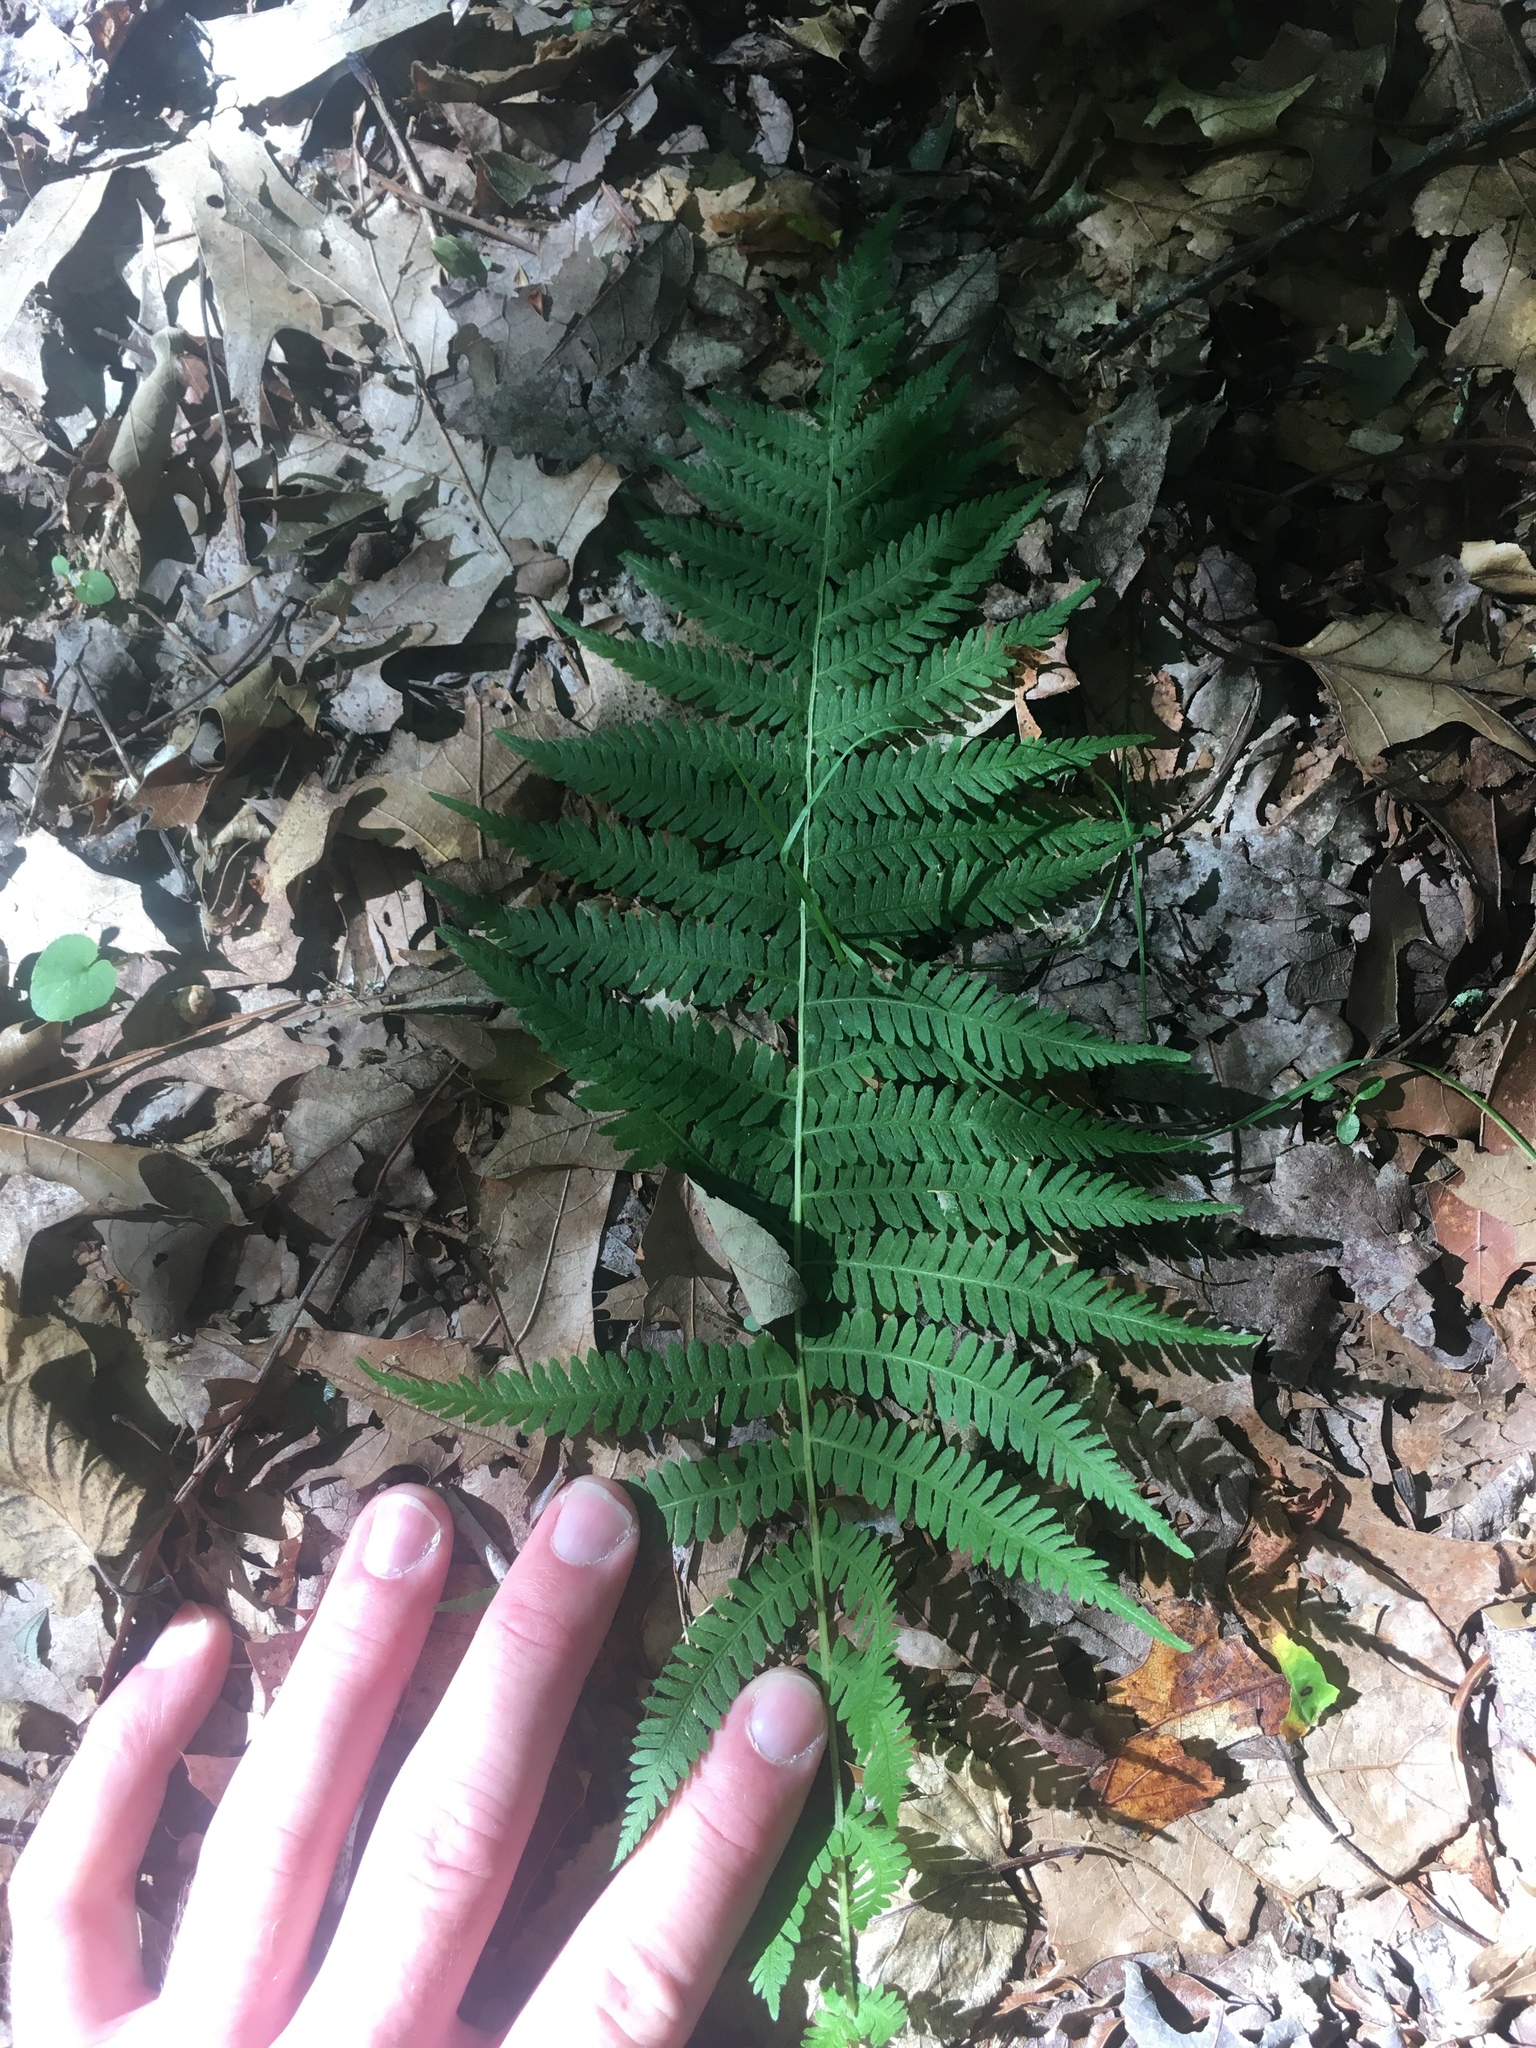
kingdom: Plantae
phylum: Tracheophyta
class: Polypodiopsida
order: Polypodiales
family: Thelypteridaceae
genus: Amauropelta
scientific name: Amauropelta noveboracensis
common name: New york fern
